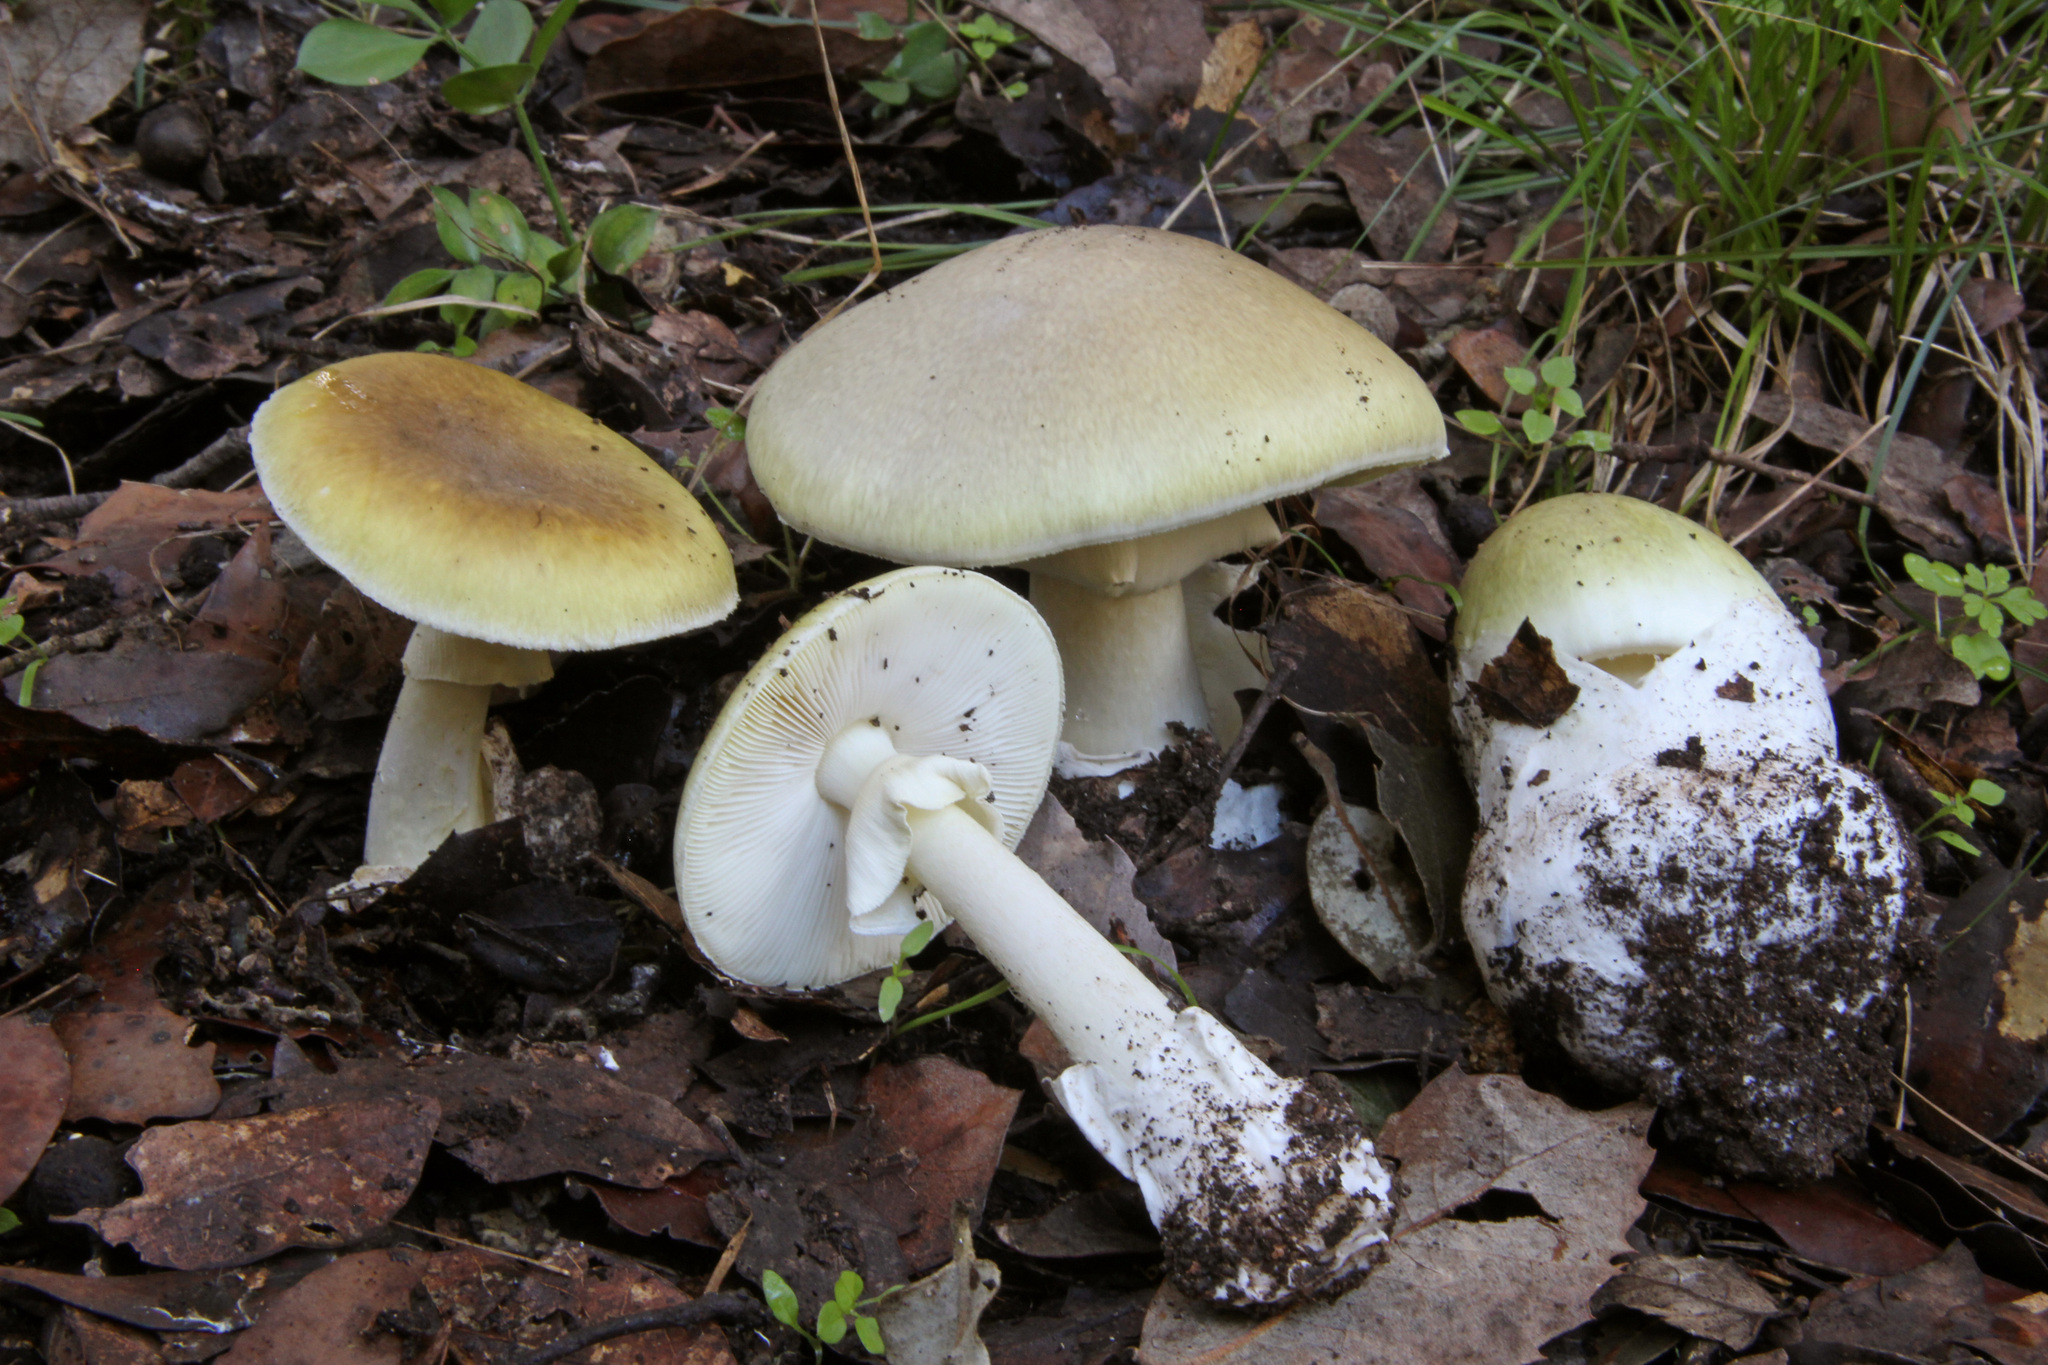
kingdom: Fungi
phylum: Basidiomycota
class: Agaricomycetes
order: Agaricales
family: Amanitaceae
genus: Amanita
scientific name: Amanita phalloides
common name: Death cap
